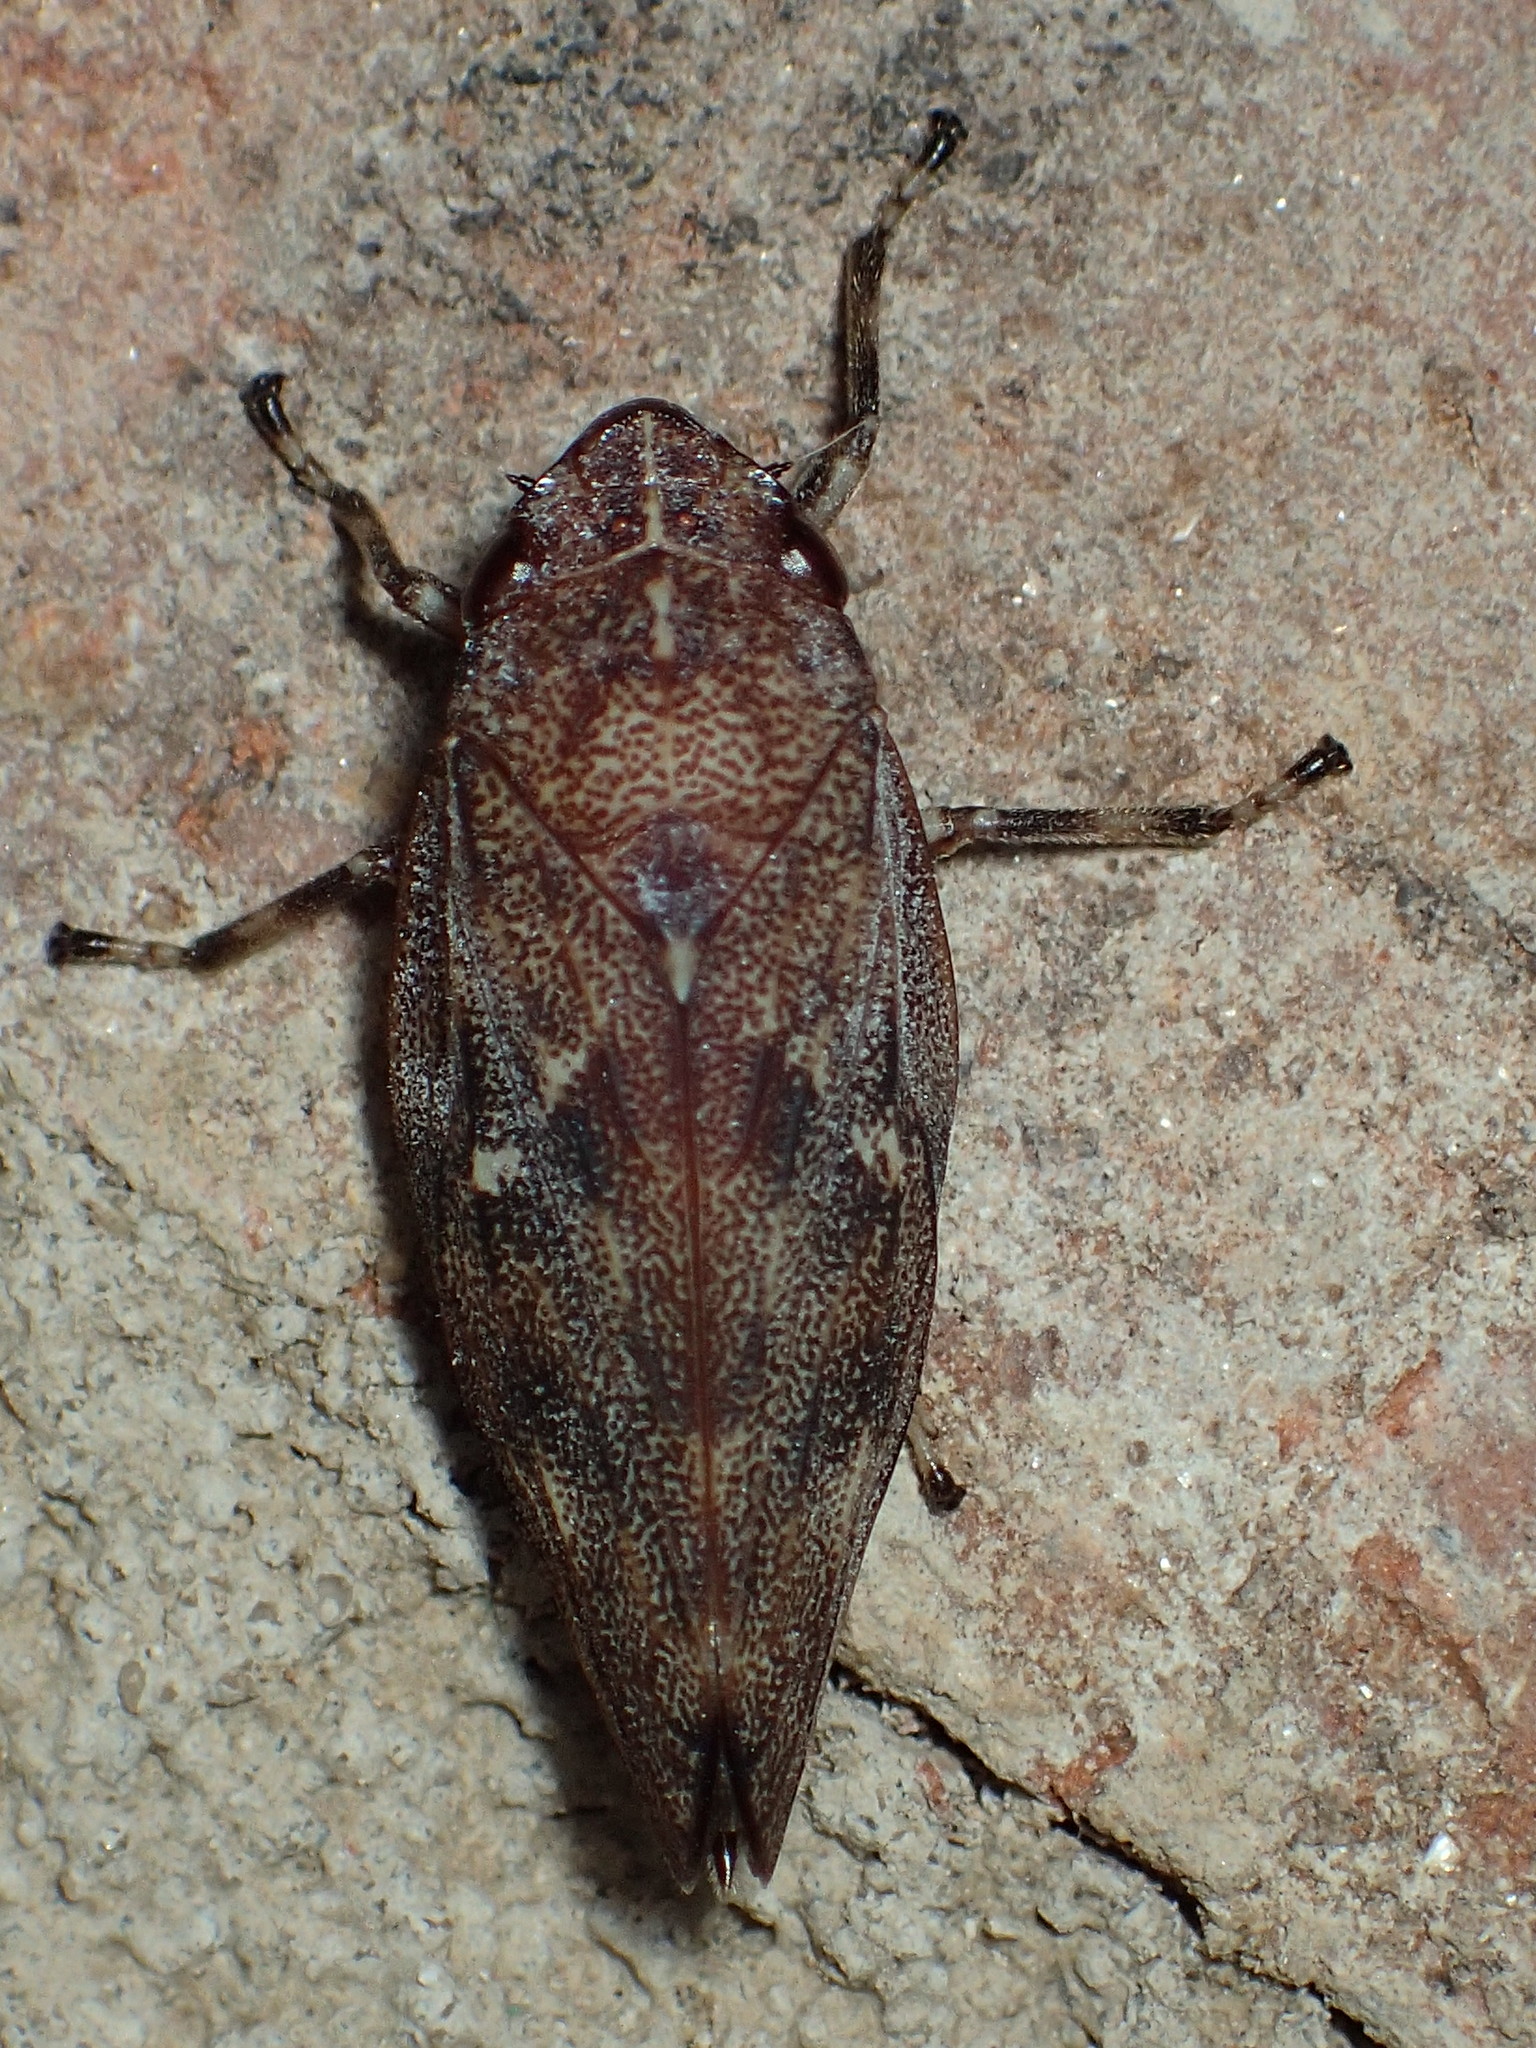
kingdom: Animalia
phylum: Arthropoda
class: Insecta
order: Hemiptera
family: Epipygidae
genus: Epipyga
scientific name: Epipyga cribrata
